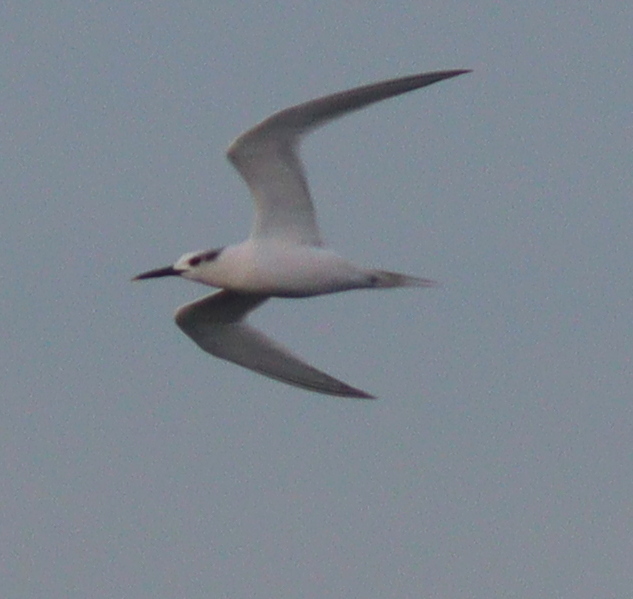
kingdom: Animalia
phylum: Chordata
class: Aves
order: Charadriiformes
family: Laridae
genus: Thalasseus
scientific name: Thalasseus sandvicensis
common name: Sandwich tern
